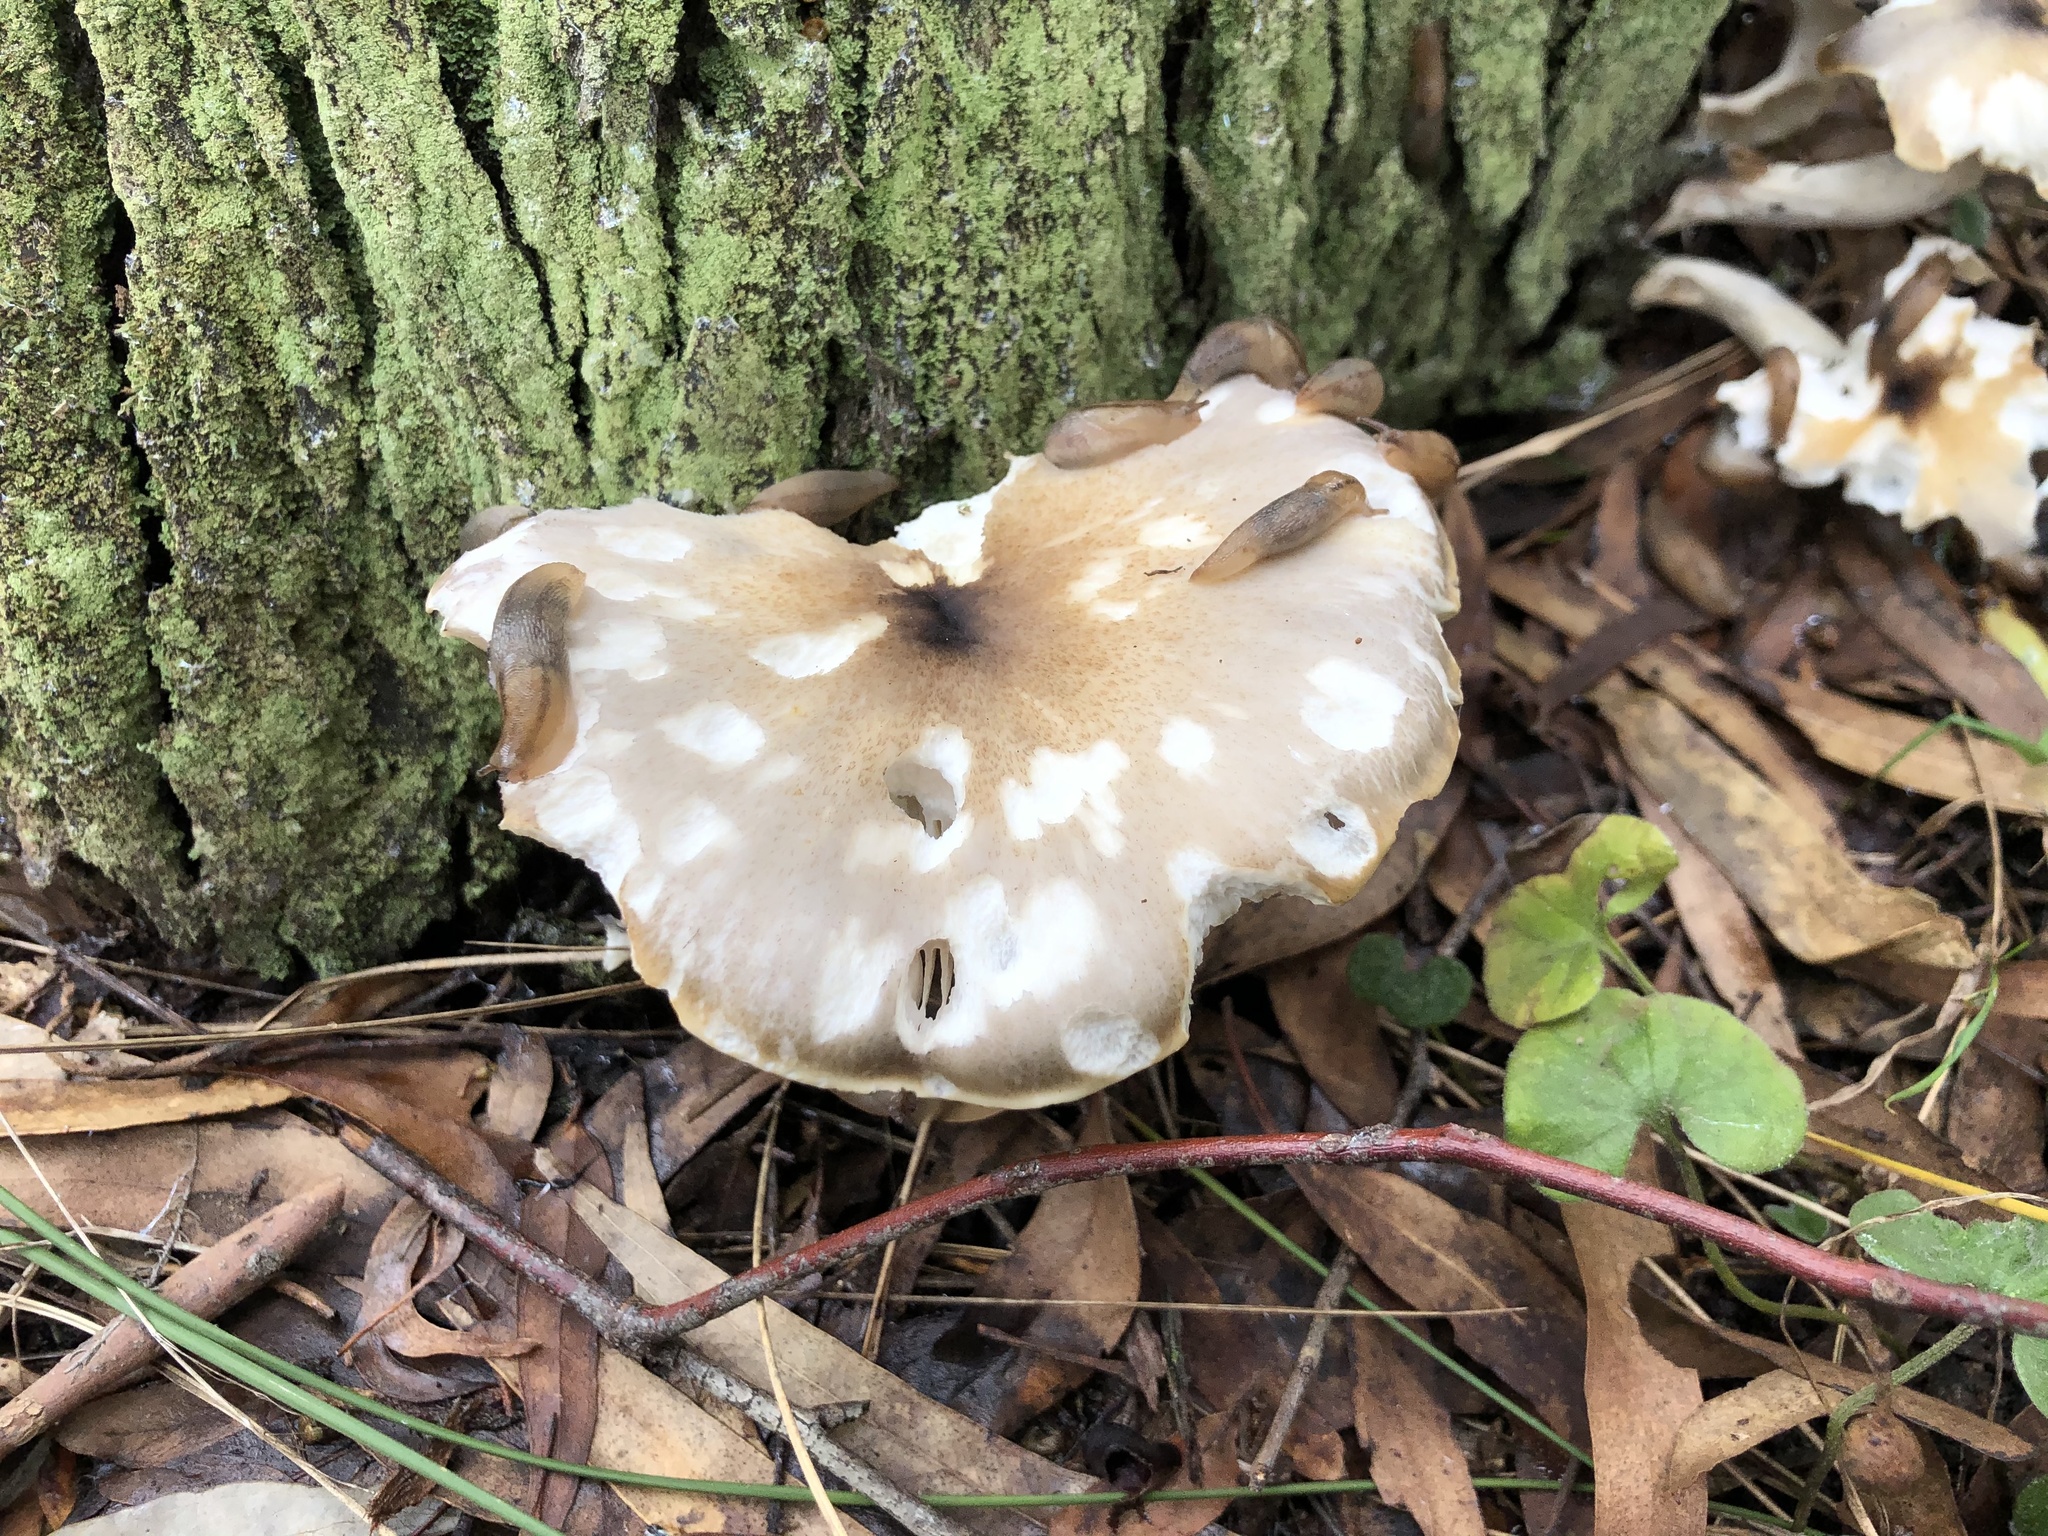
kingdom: Fungi
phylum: Basidiomycota
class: Agaricomycetes
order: Agaricales
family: Omphalotaceae
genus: Omphalotus
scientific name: Omphalotus nidiformis
